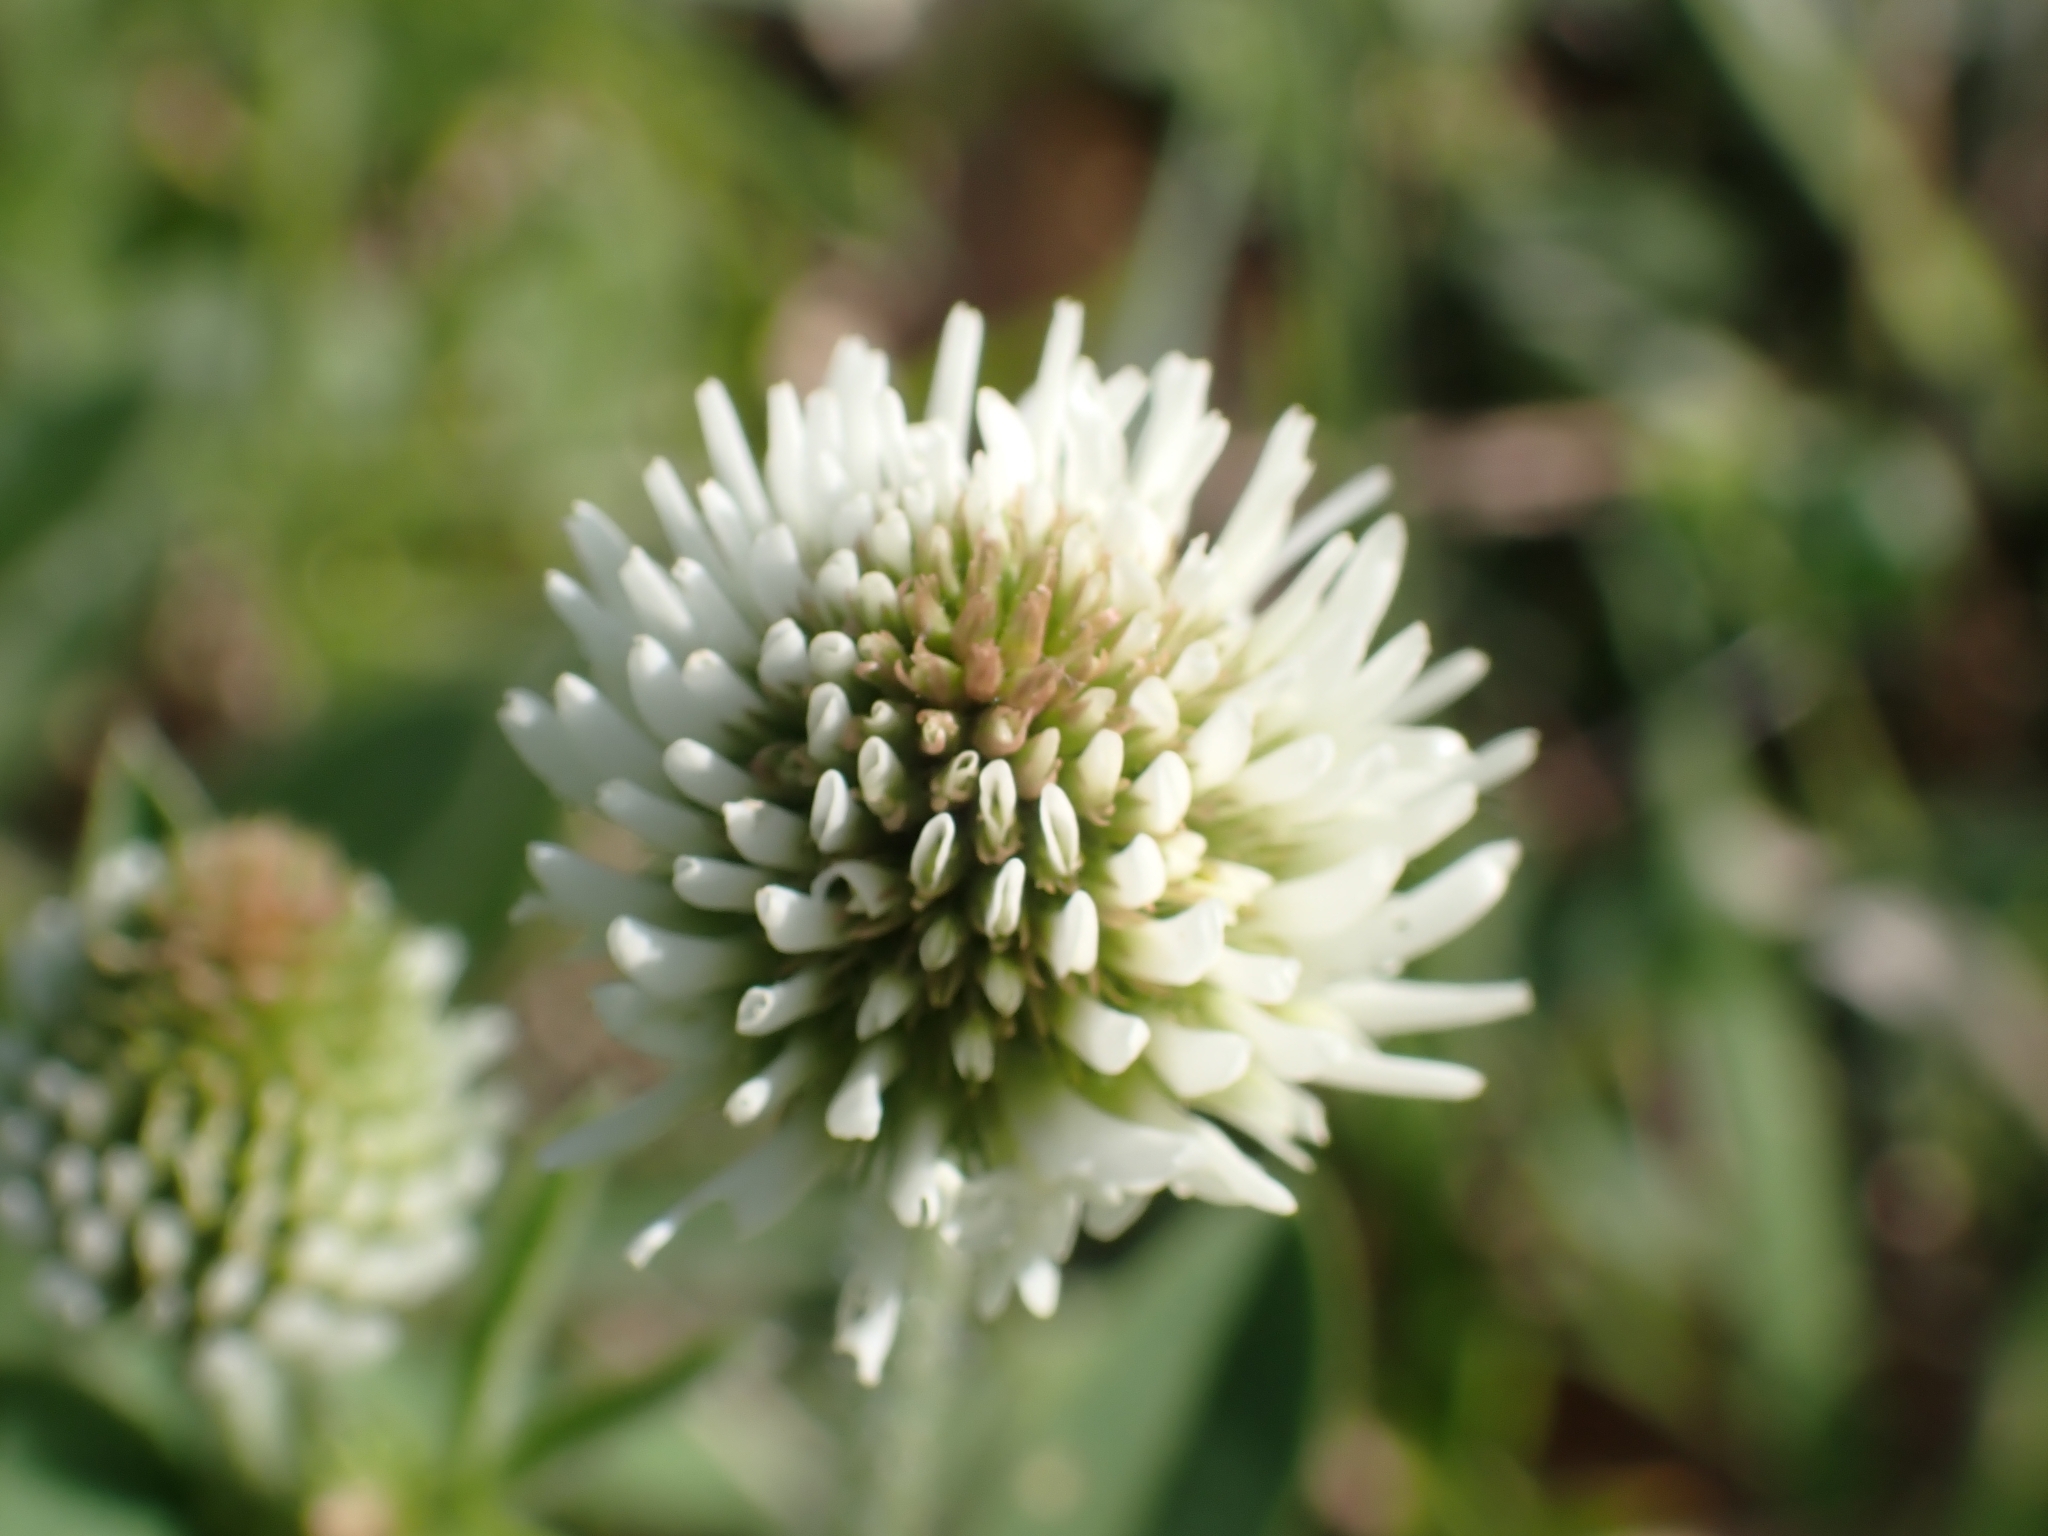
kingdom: Plantae
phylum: Tracheophyta
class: Magnoliopsida
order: Fabales
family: Fabaceae
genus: Trifolium
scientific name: Trifolium montanum
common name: Mountain clover
